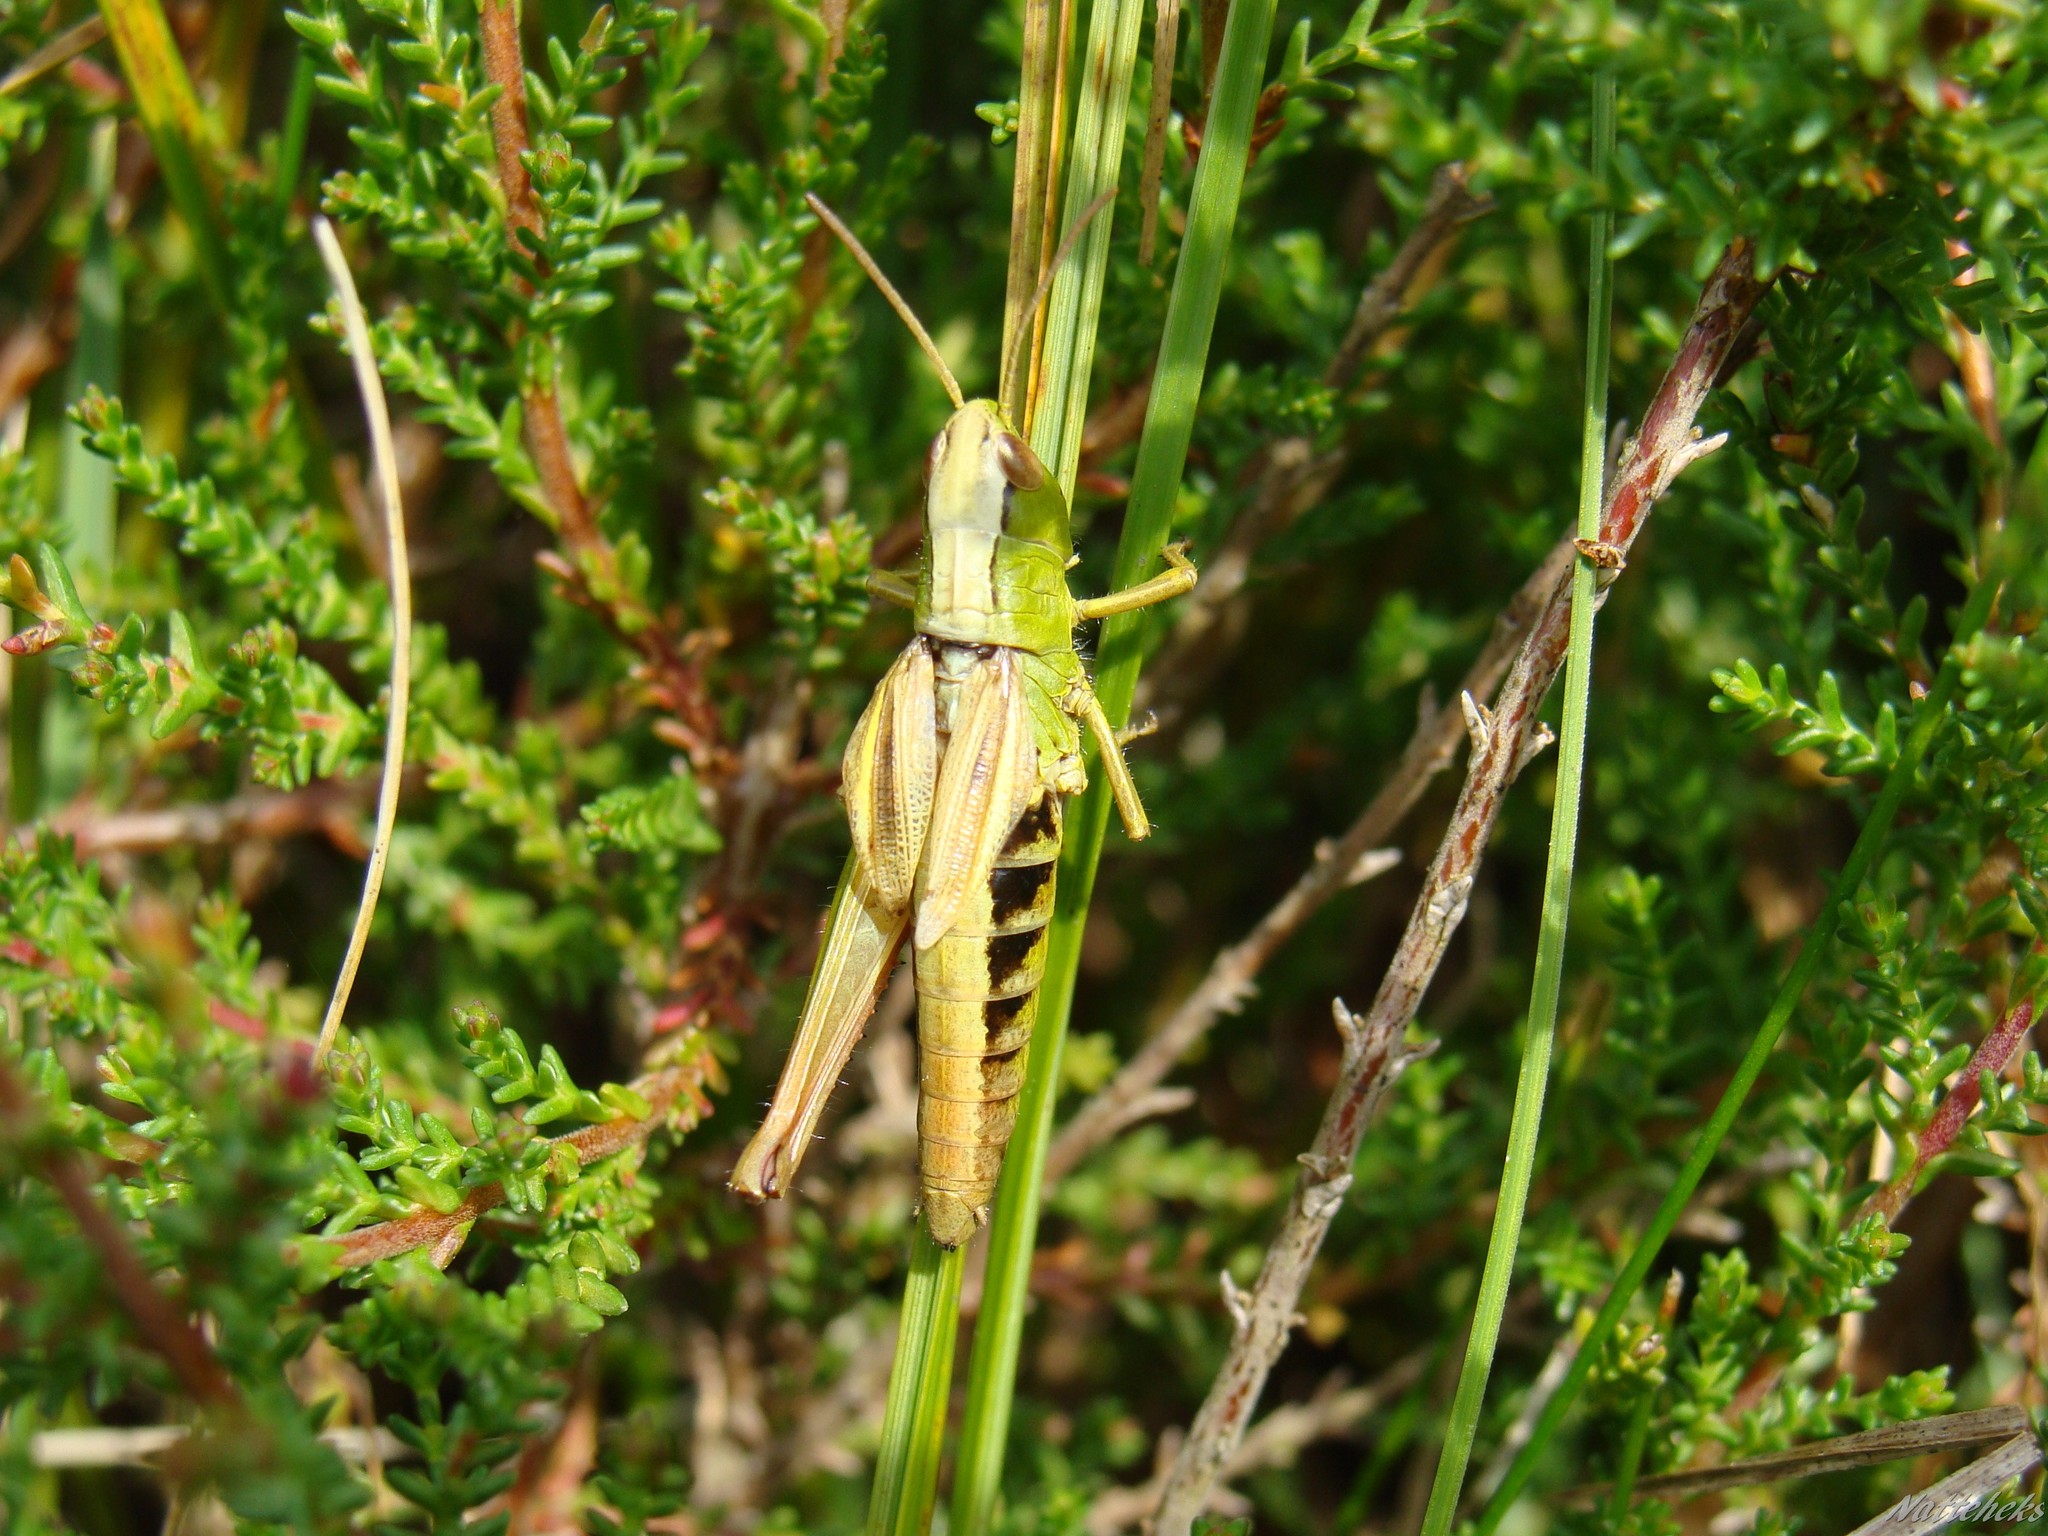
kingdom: Animalia
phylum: Arthropoda
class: Insecta
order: Orthoptera
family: Acrididae
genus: Pseudochorthippus
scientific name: Pseudochorthippus parallelus
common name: Meadow grasshopper
